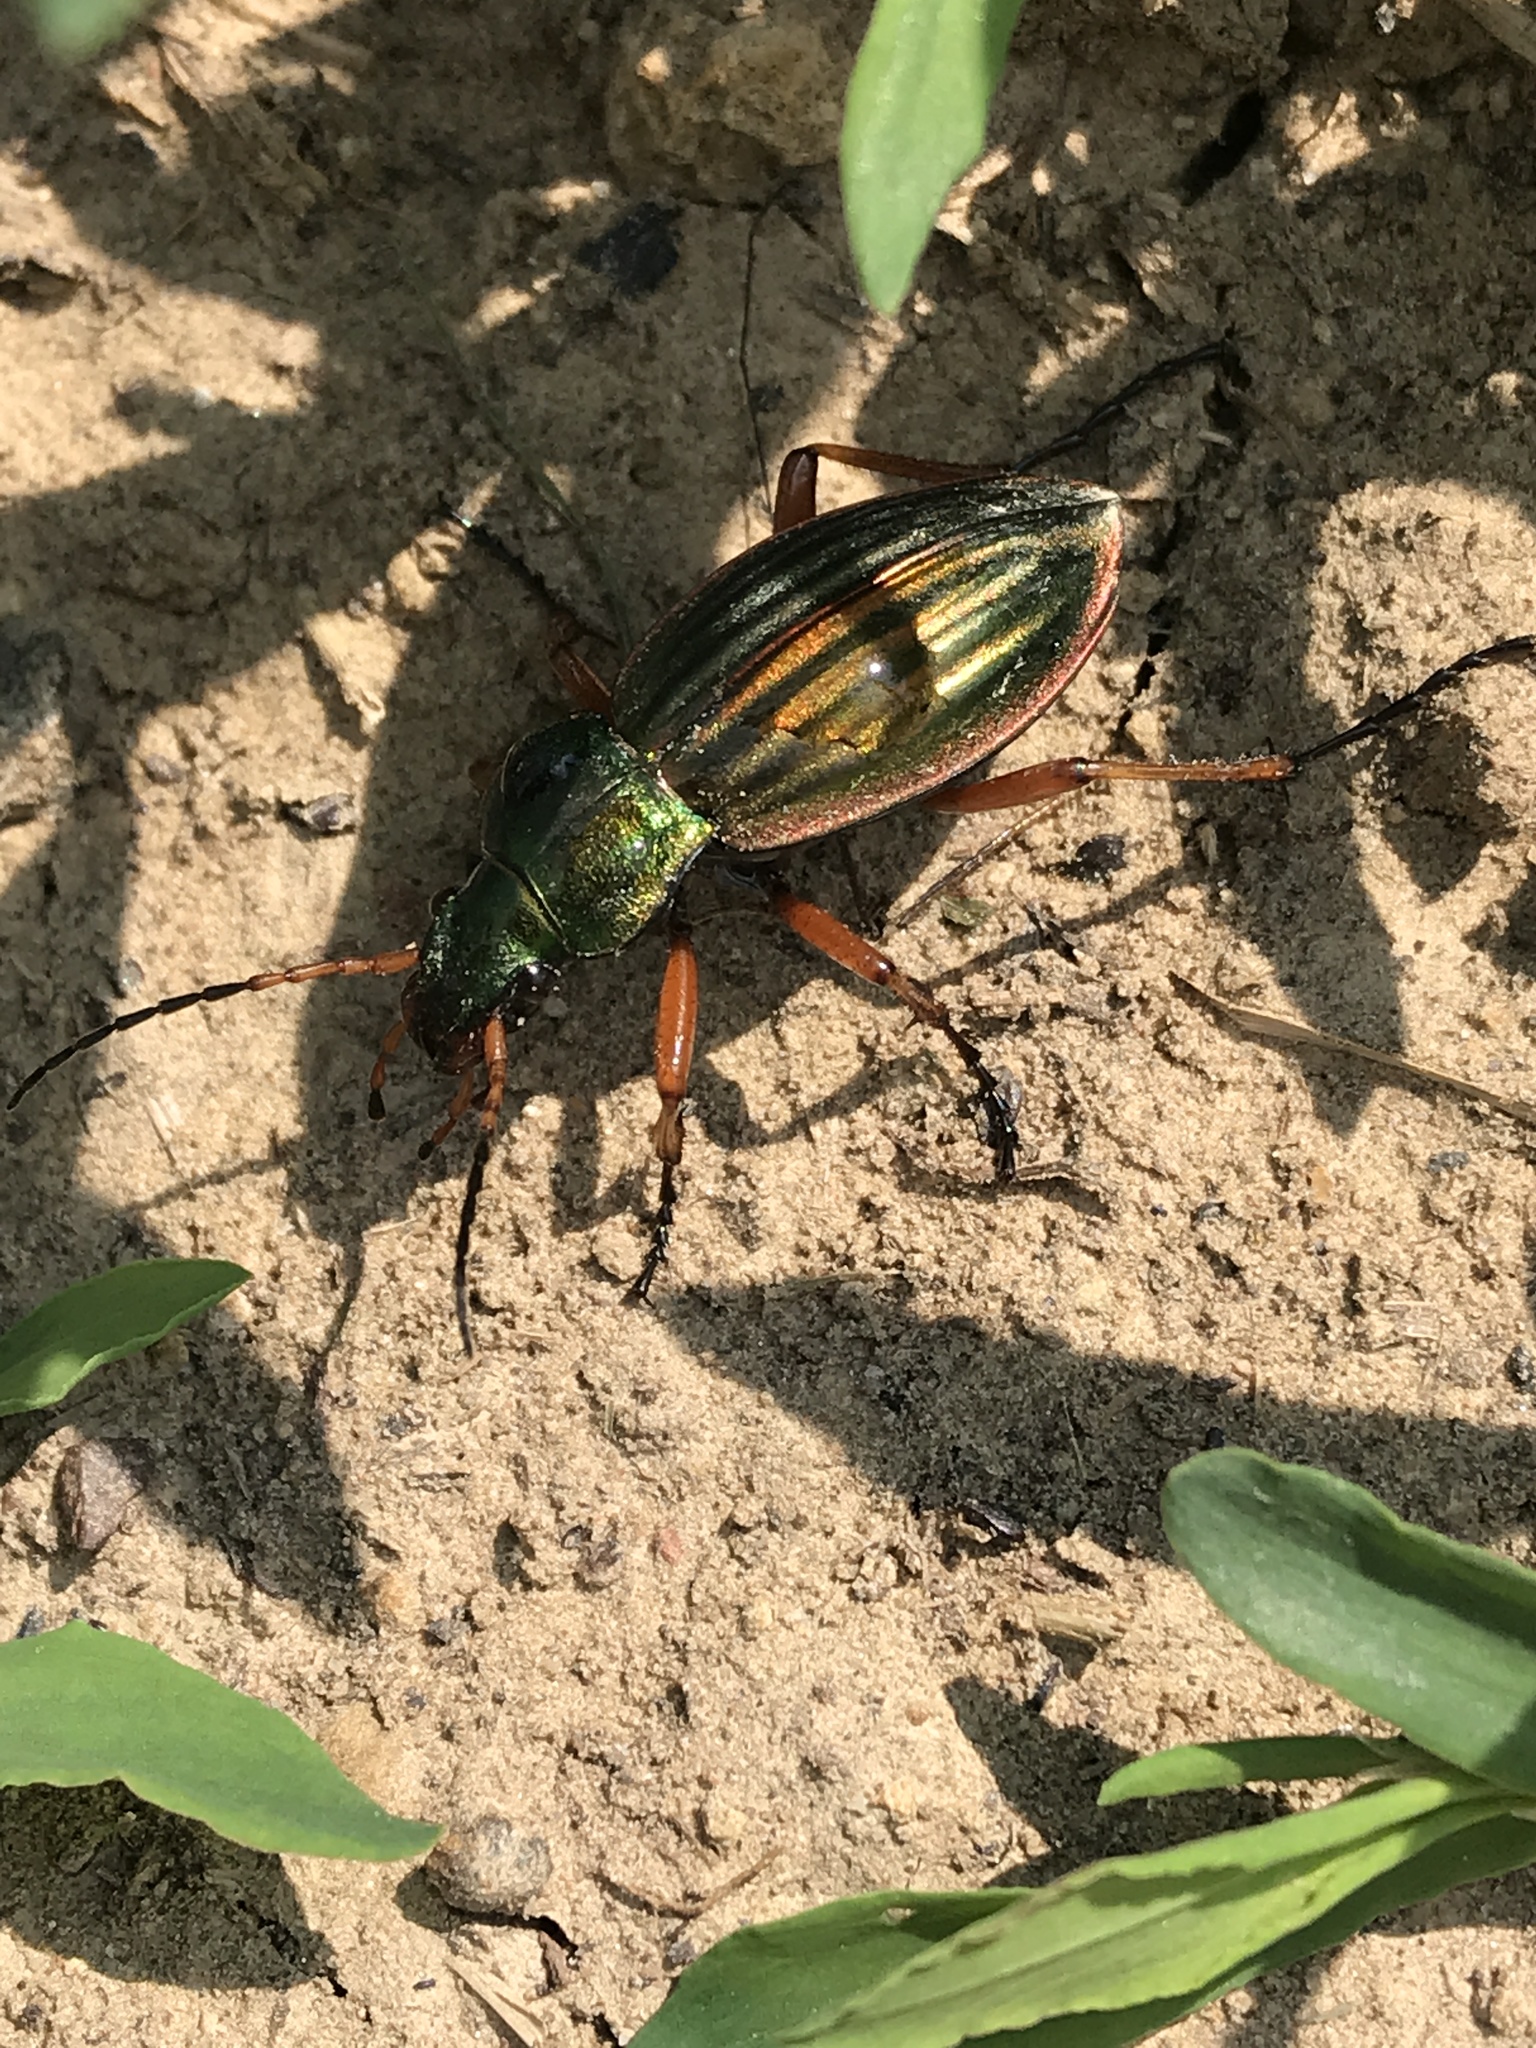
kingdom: Animalia
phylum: Arthropoda
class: Insecta
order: Coleoptera
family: Carabidae
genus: Carabus
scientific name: Carabus auratus
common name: Golden ground beetle
